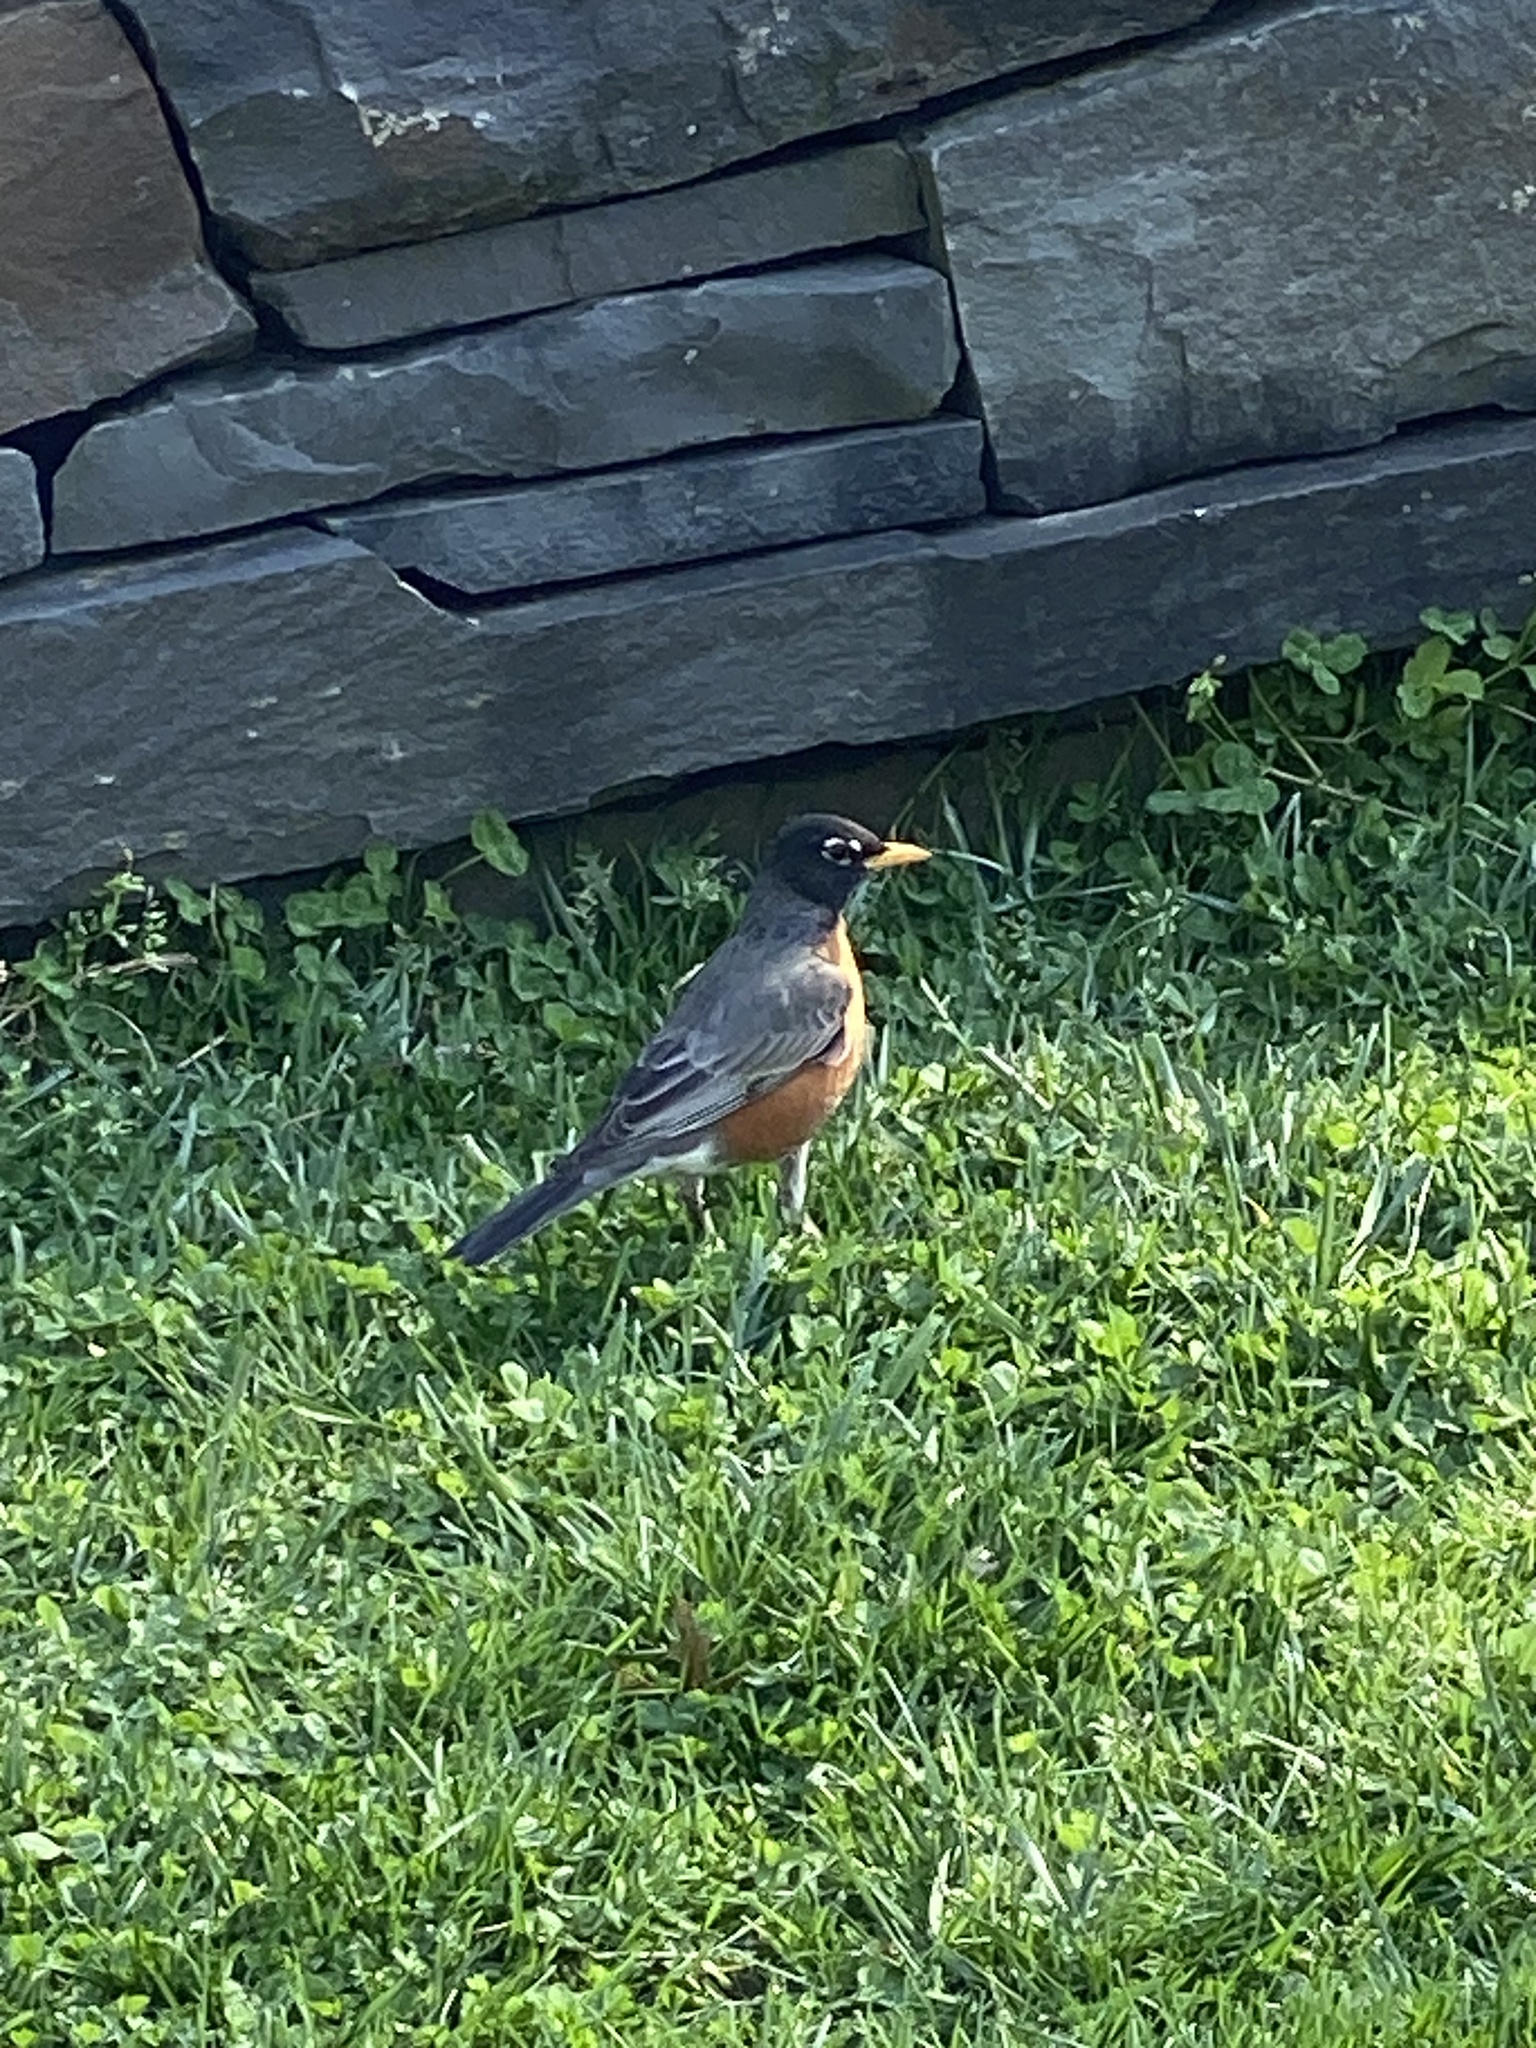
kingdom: Animalia
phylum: Chordata
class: Aves
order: Passeriformes
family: Turdidae
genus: Turdus
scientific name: Turdus migratorius
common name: American robin
